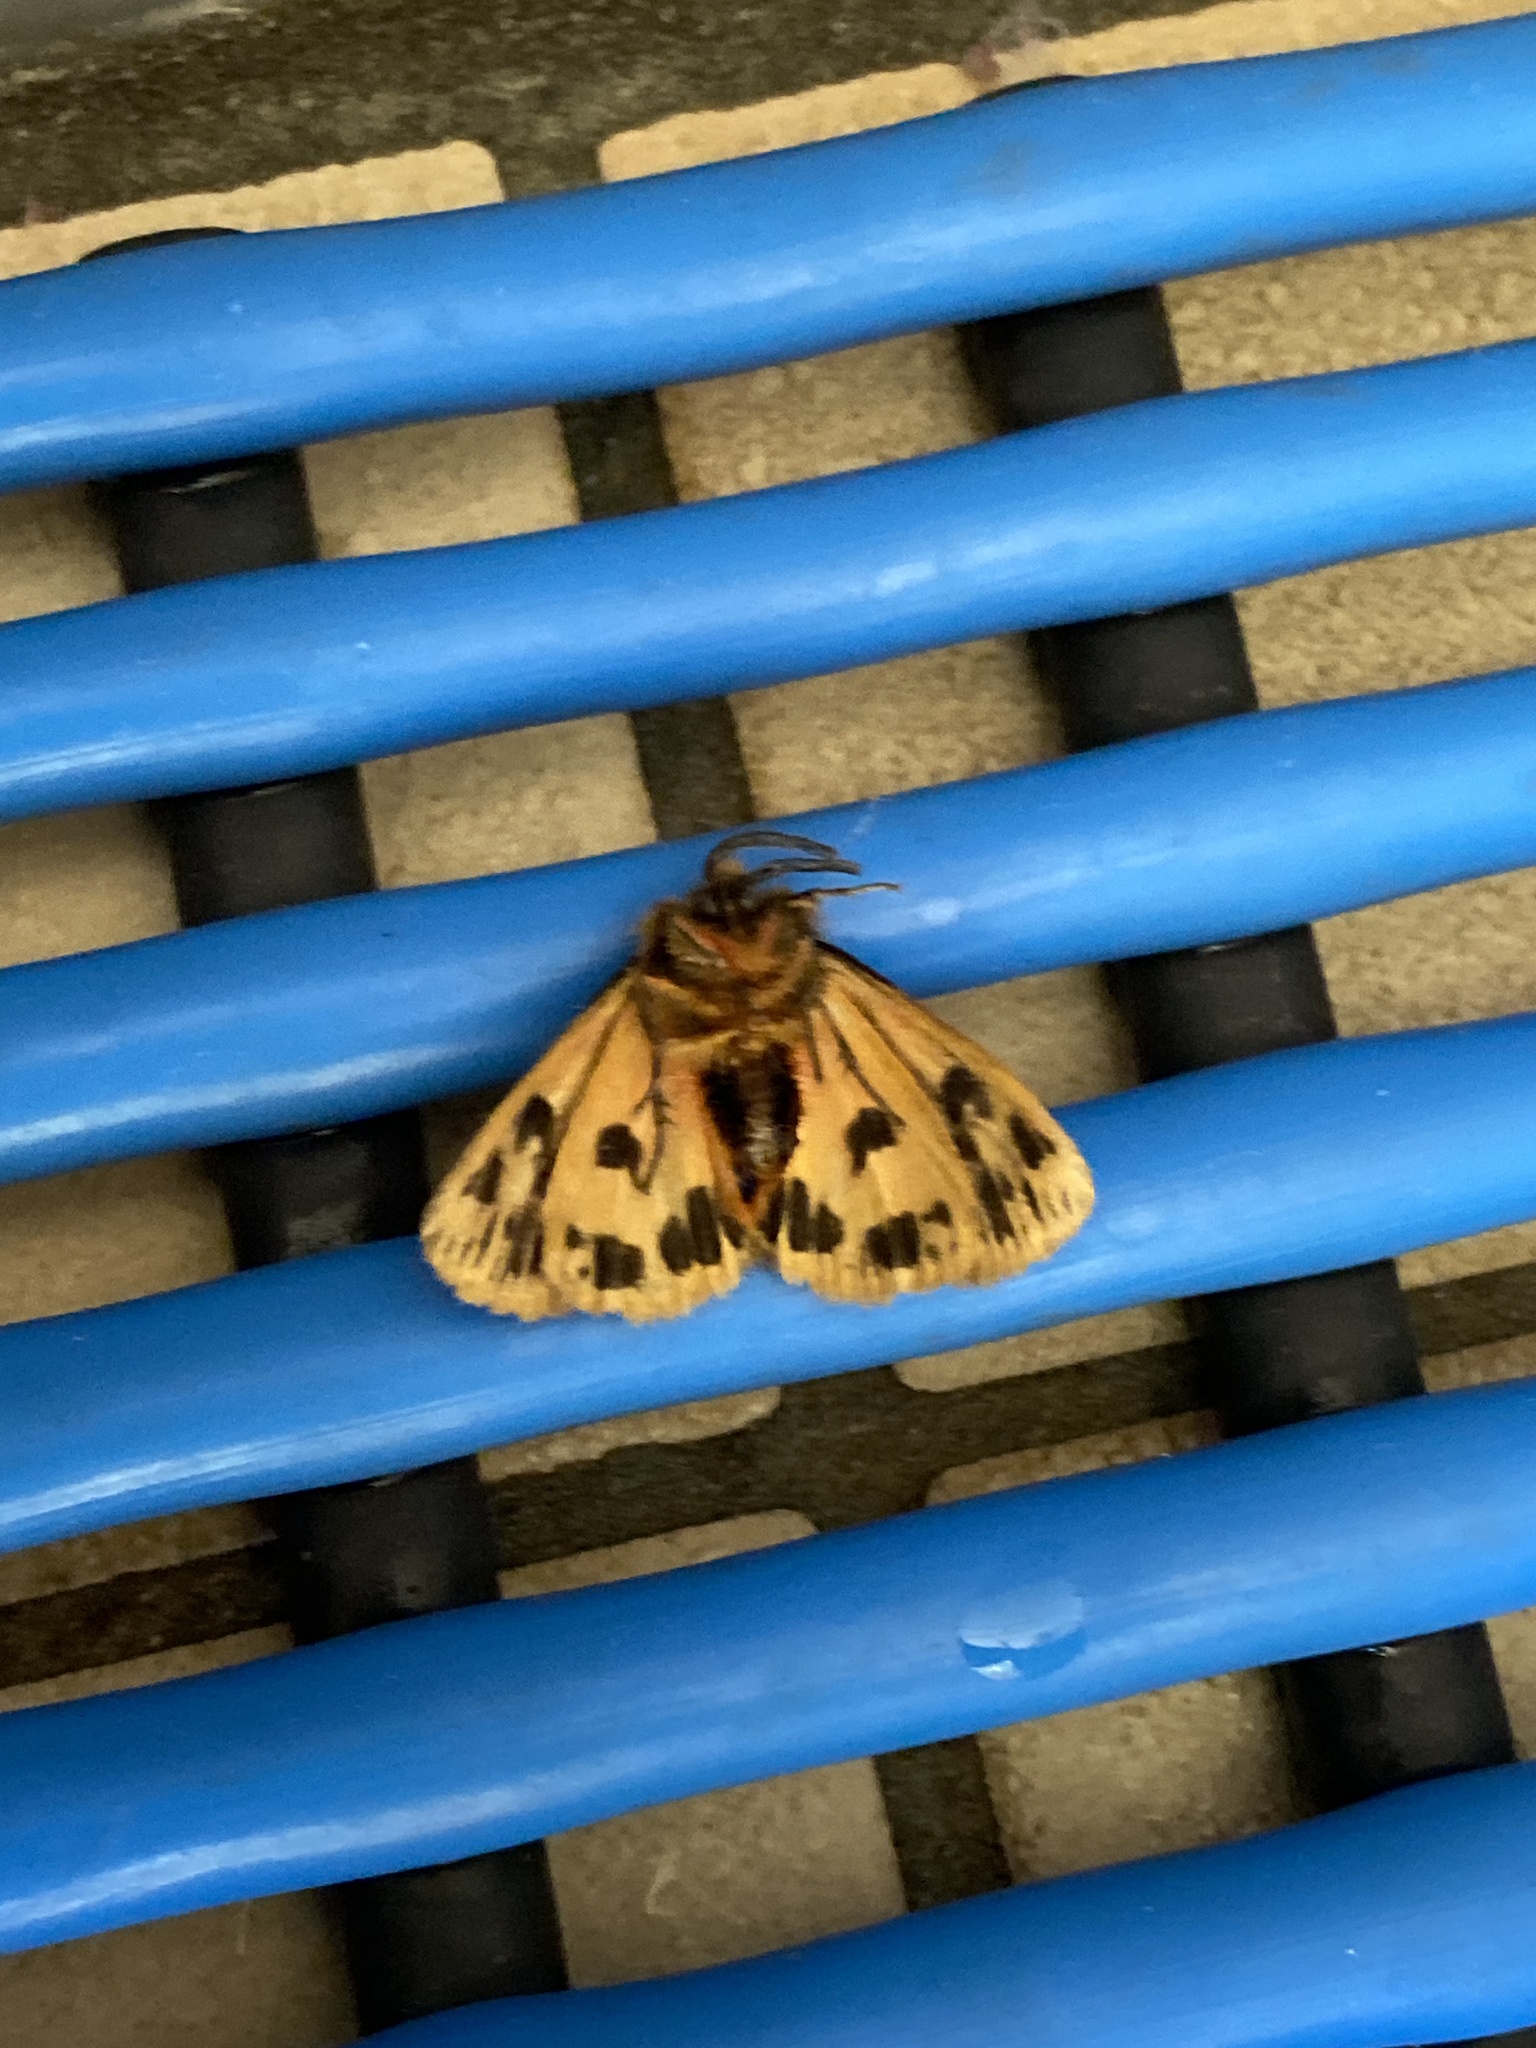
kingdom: Animalia
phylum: Arthropoda
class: Insecta
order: Lepidoptera
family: Erebidae
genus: Ardices
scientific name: Ardices curvata
